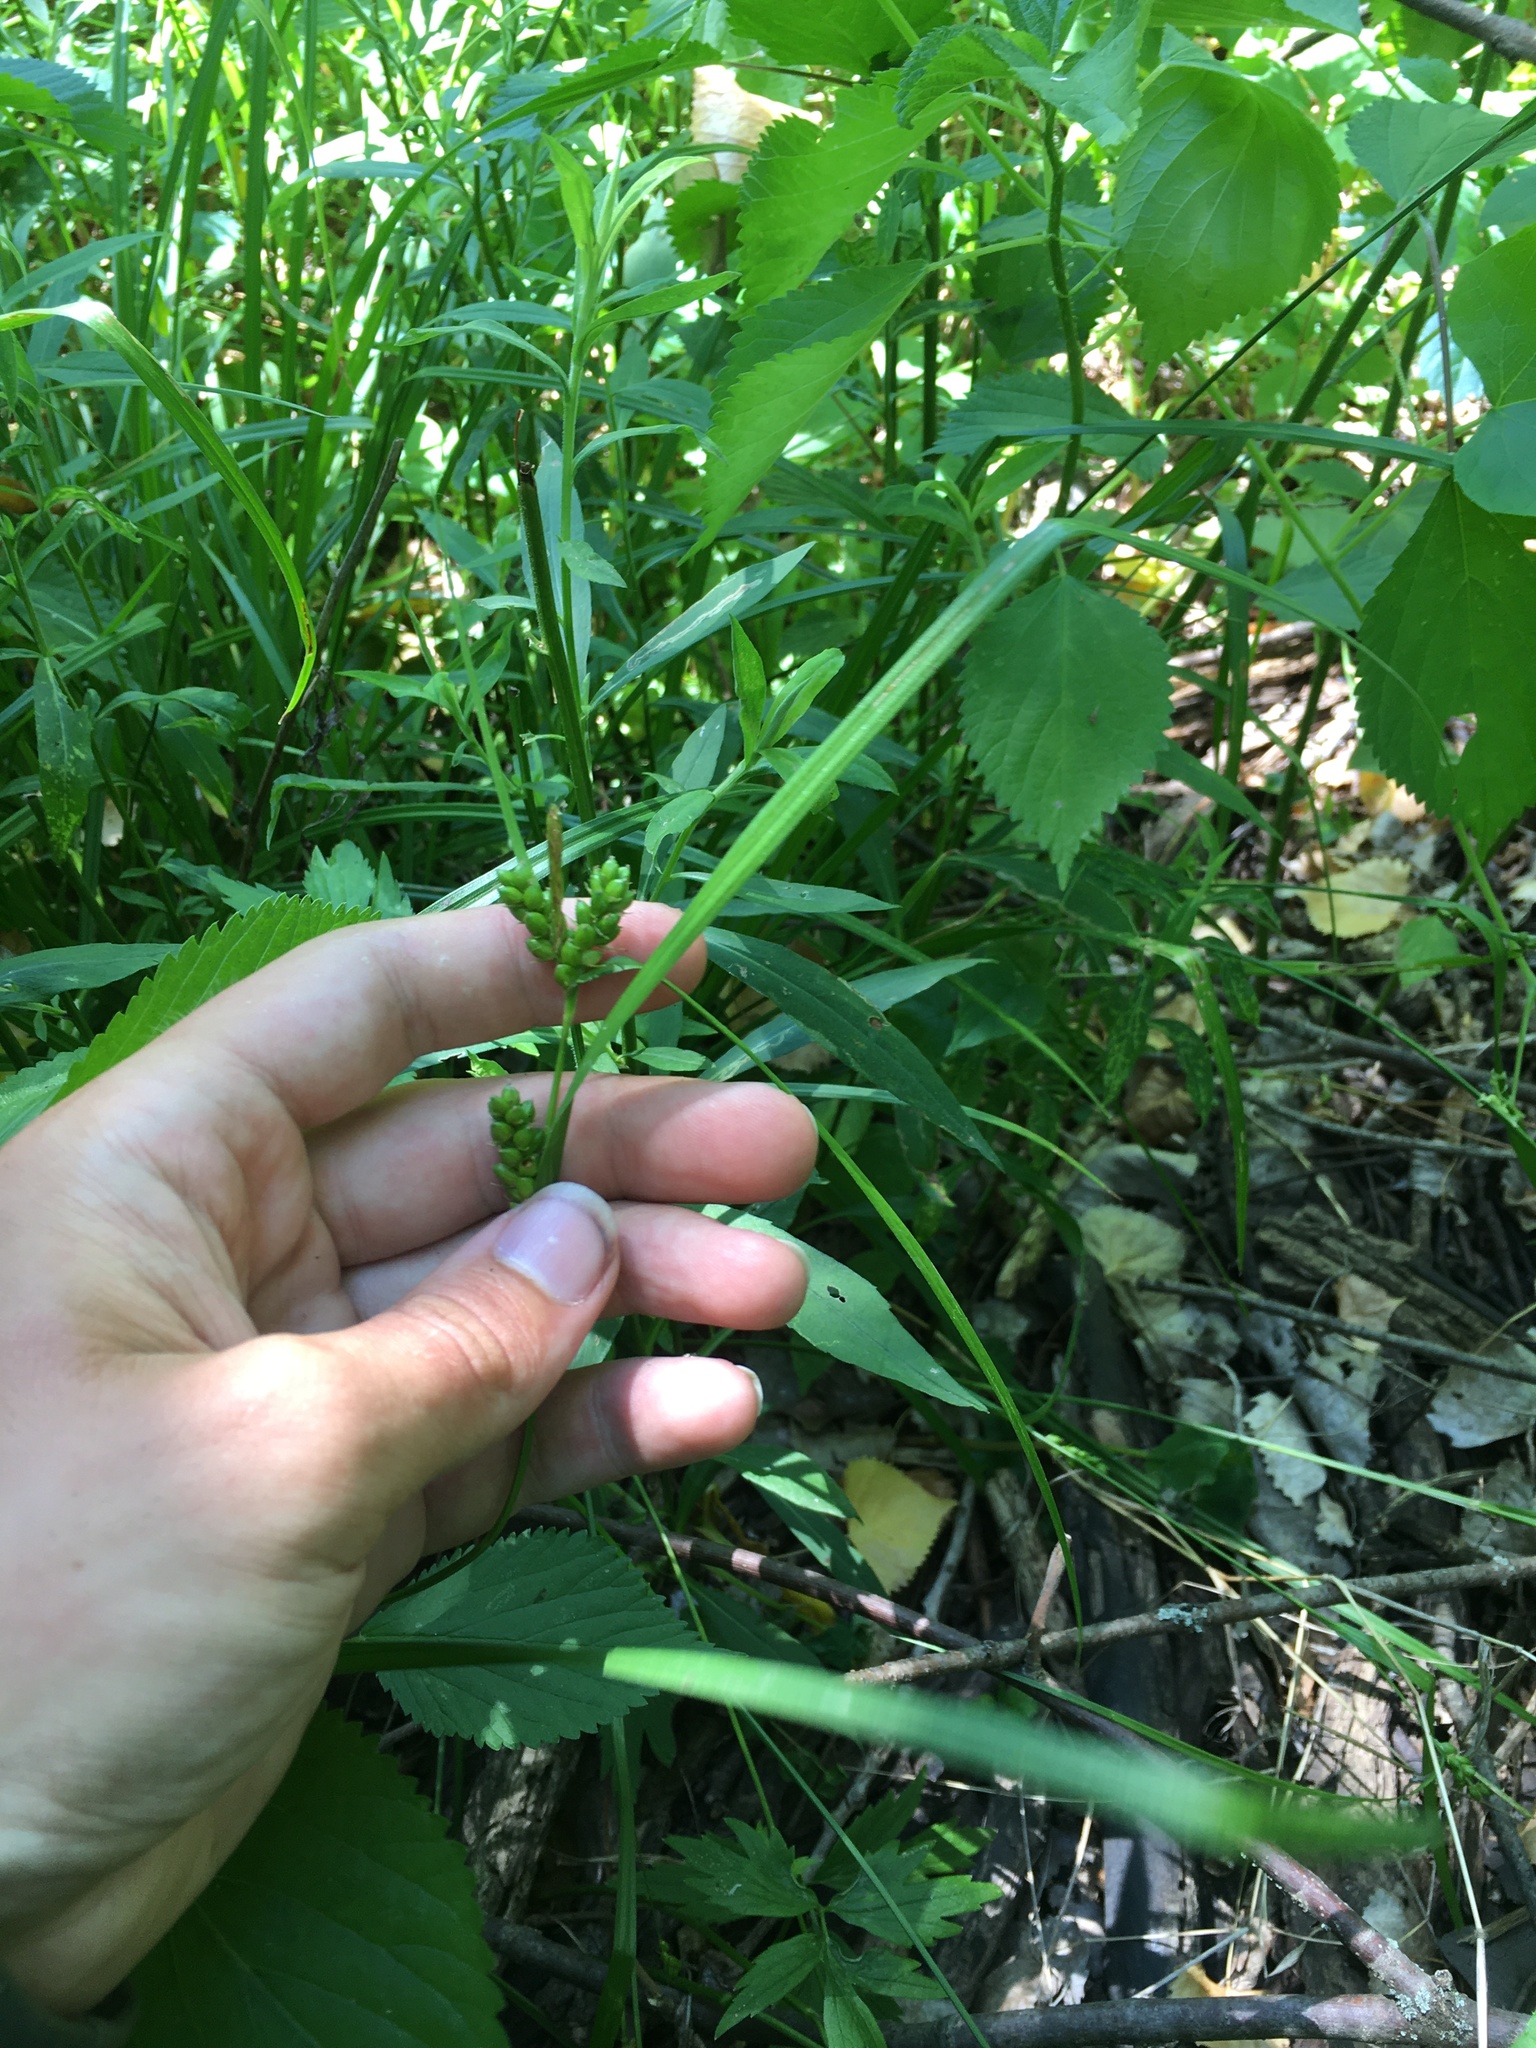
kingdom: Plantae
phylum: Tracheophyta
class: Liliopsida
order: Poales
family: Cyperaceae
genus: Carex
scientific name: Carex grisea
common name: Eastern narrow-leaved sedge
